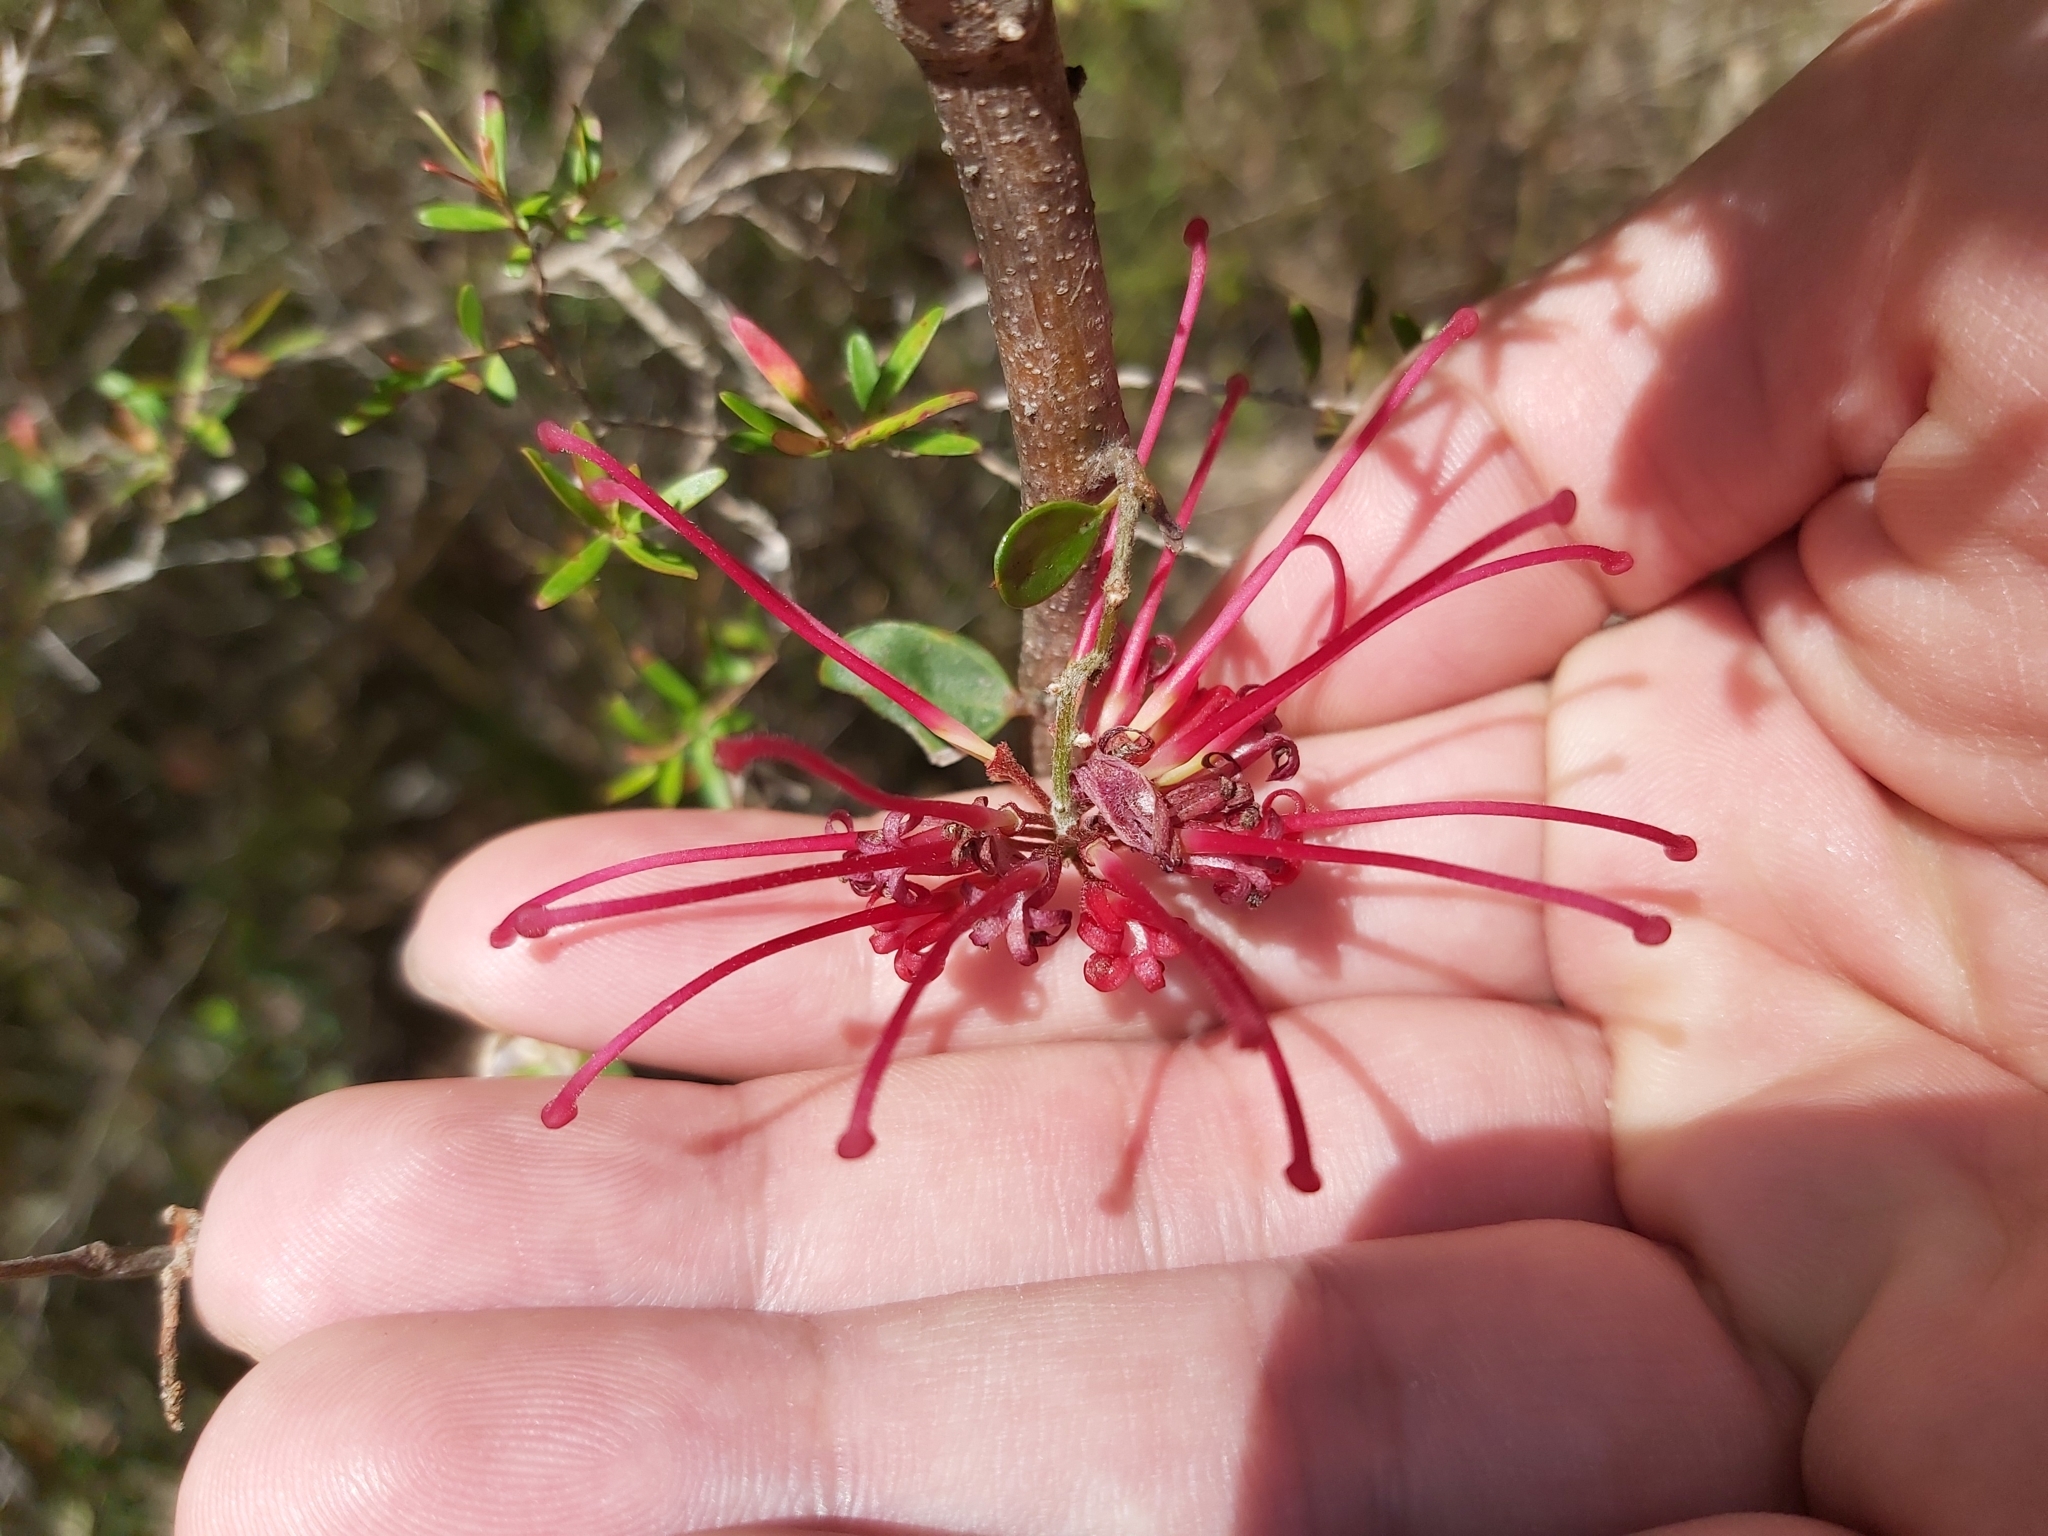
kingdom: Plantae
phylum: Tracheophyta
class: Magnoliopsida
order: Proteales
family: Proteaceae
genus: Grevillea
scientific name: Grevillea speciosa
